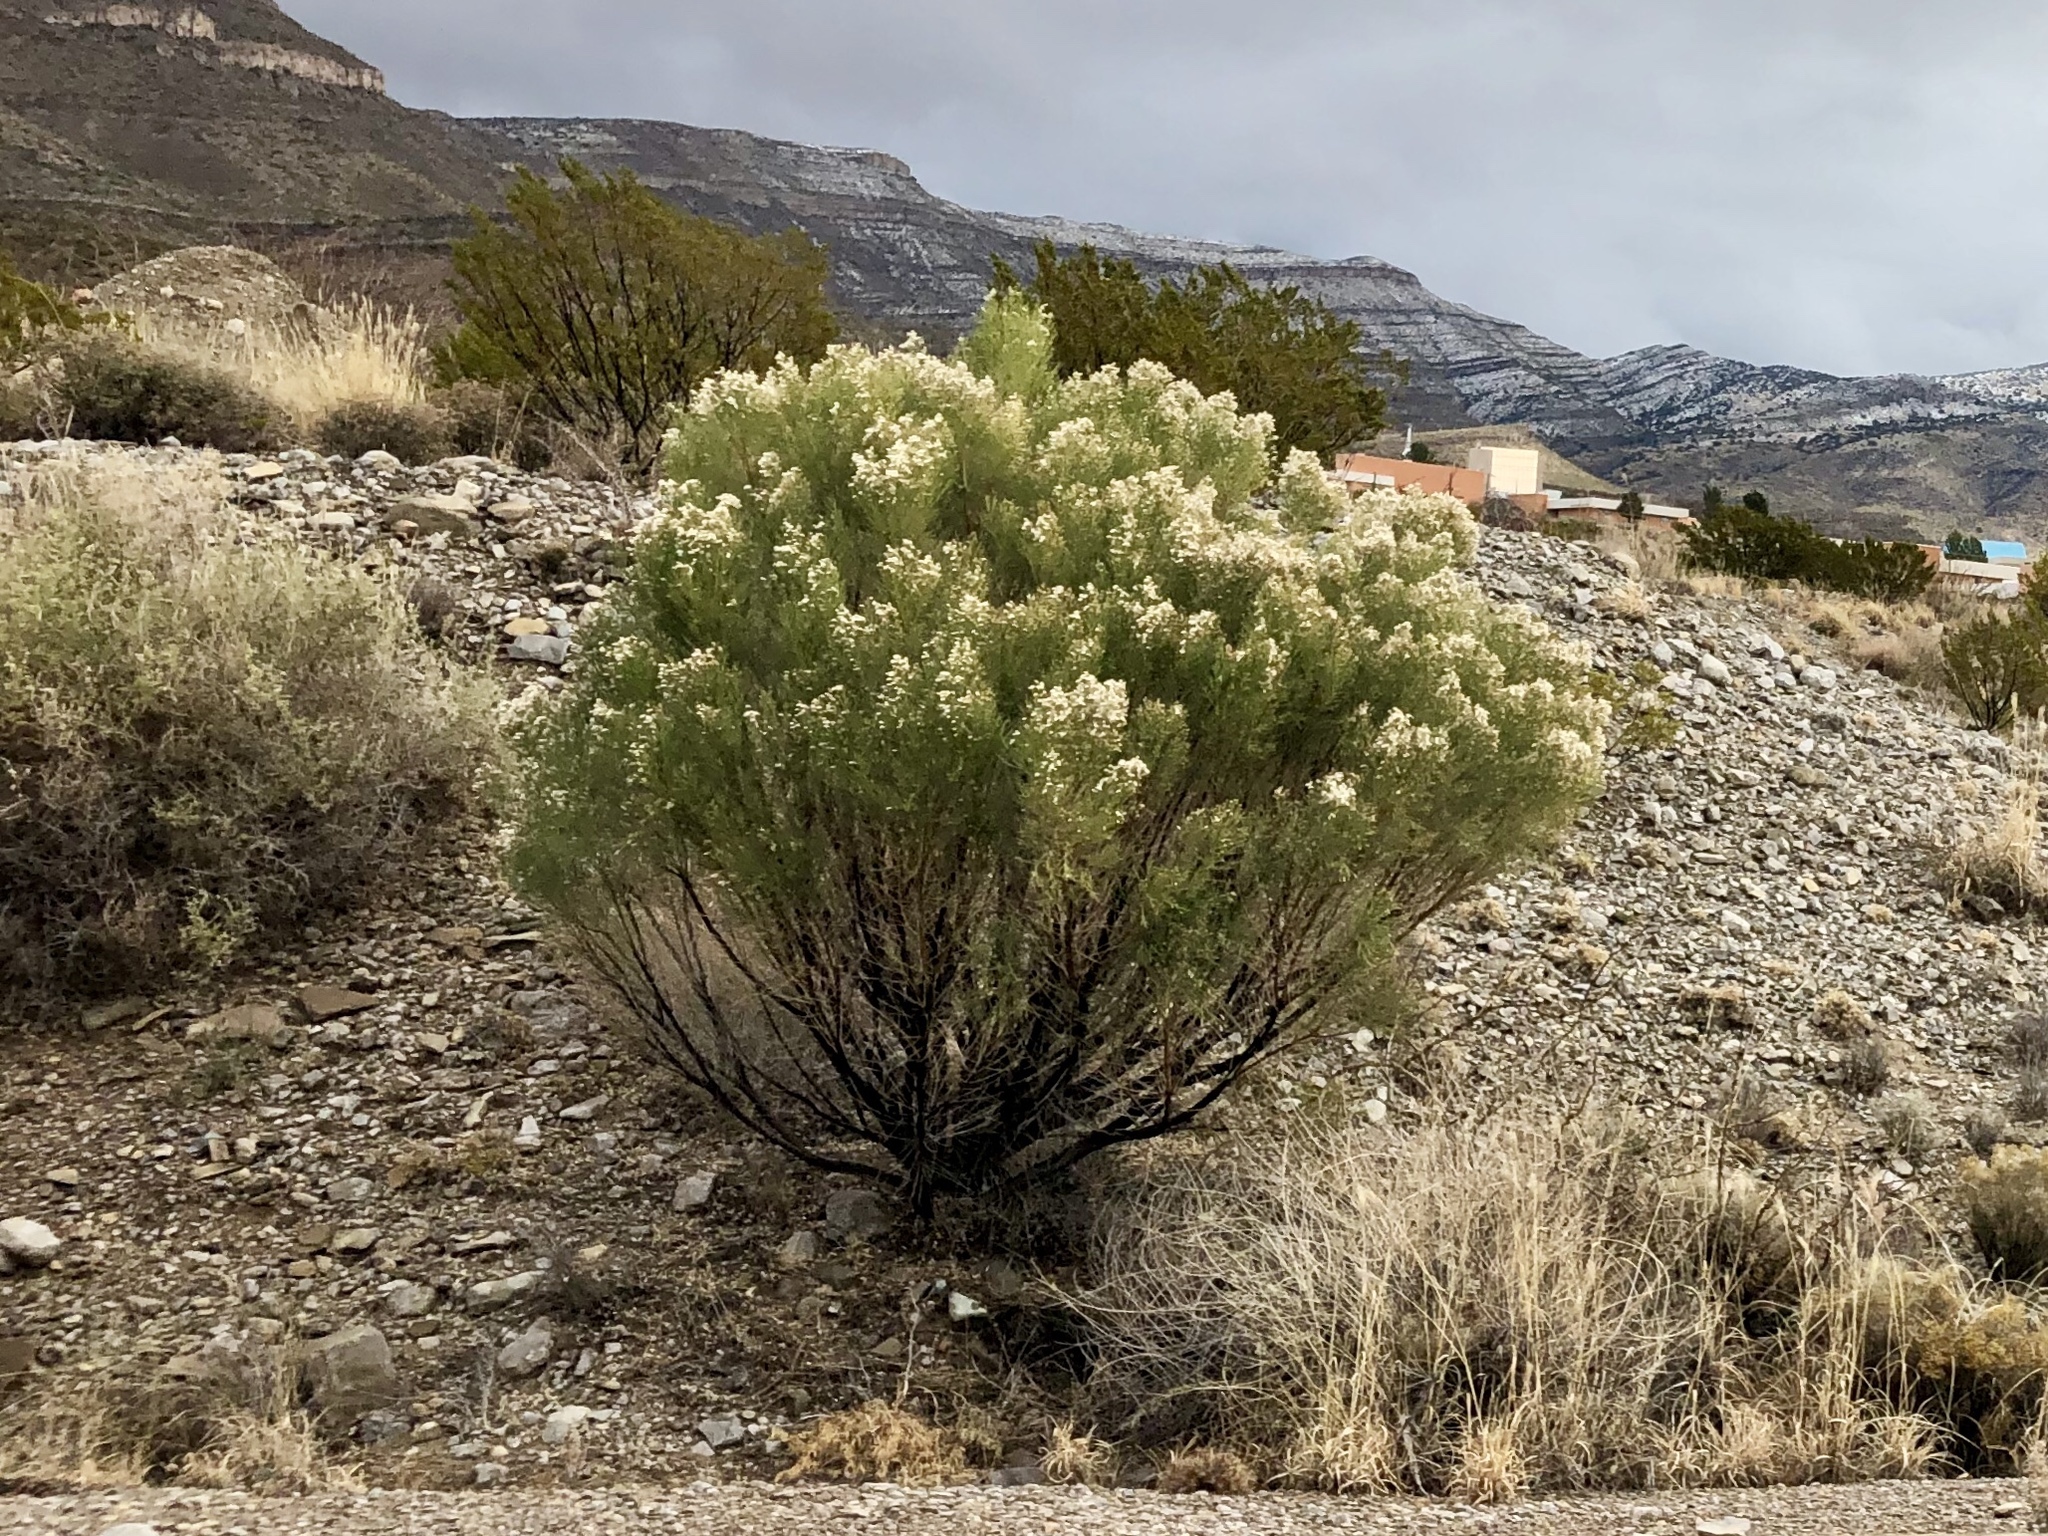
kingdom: Plantae
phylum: Tracheophyta
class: Magnoliopsida
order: Asterales
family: Asteraceae
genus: Baccharis
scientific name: Baccharis sarothroides
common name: Desert-broom
